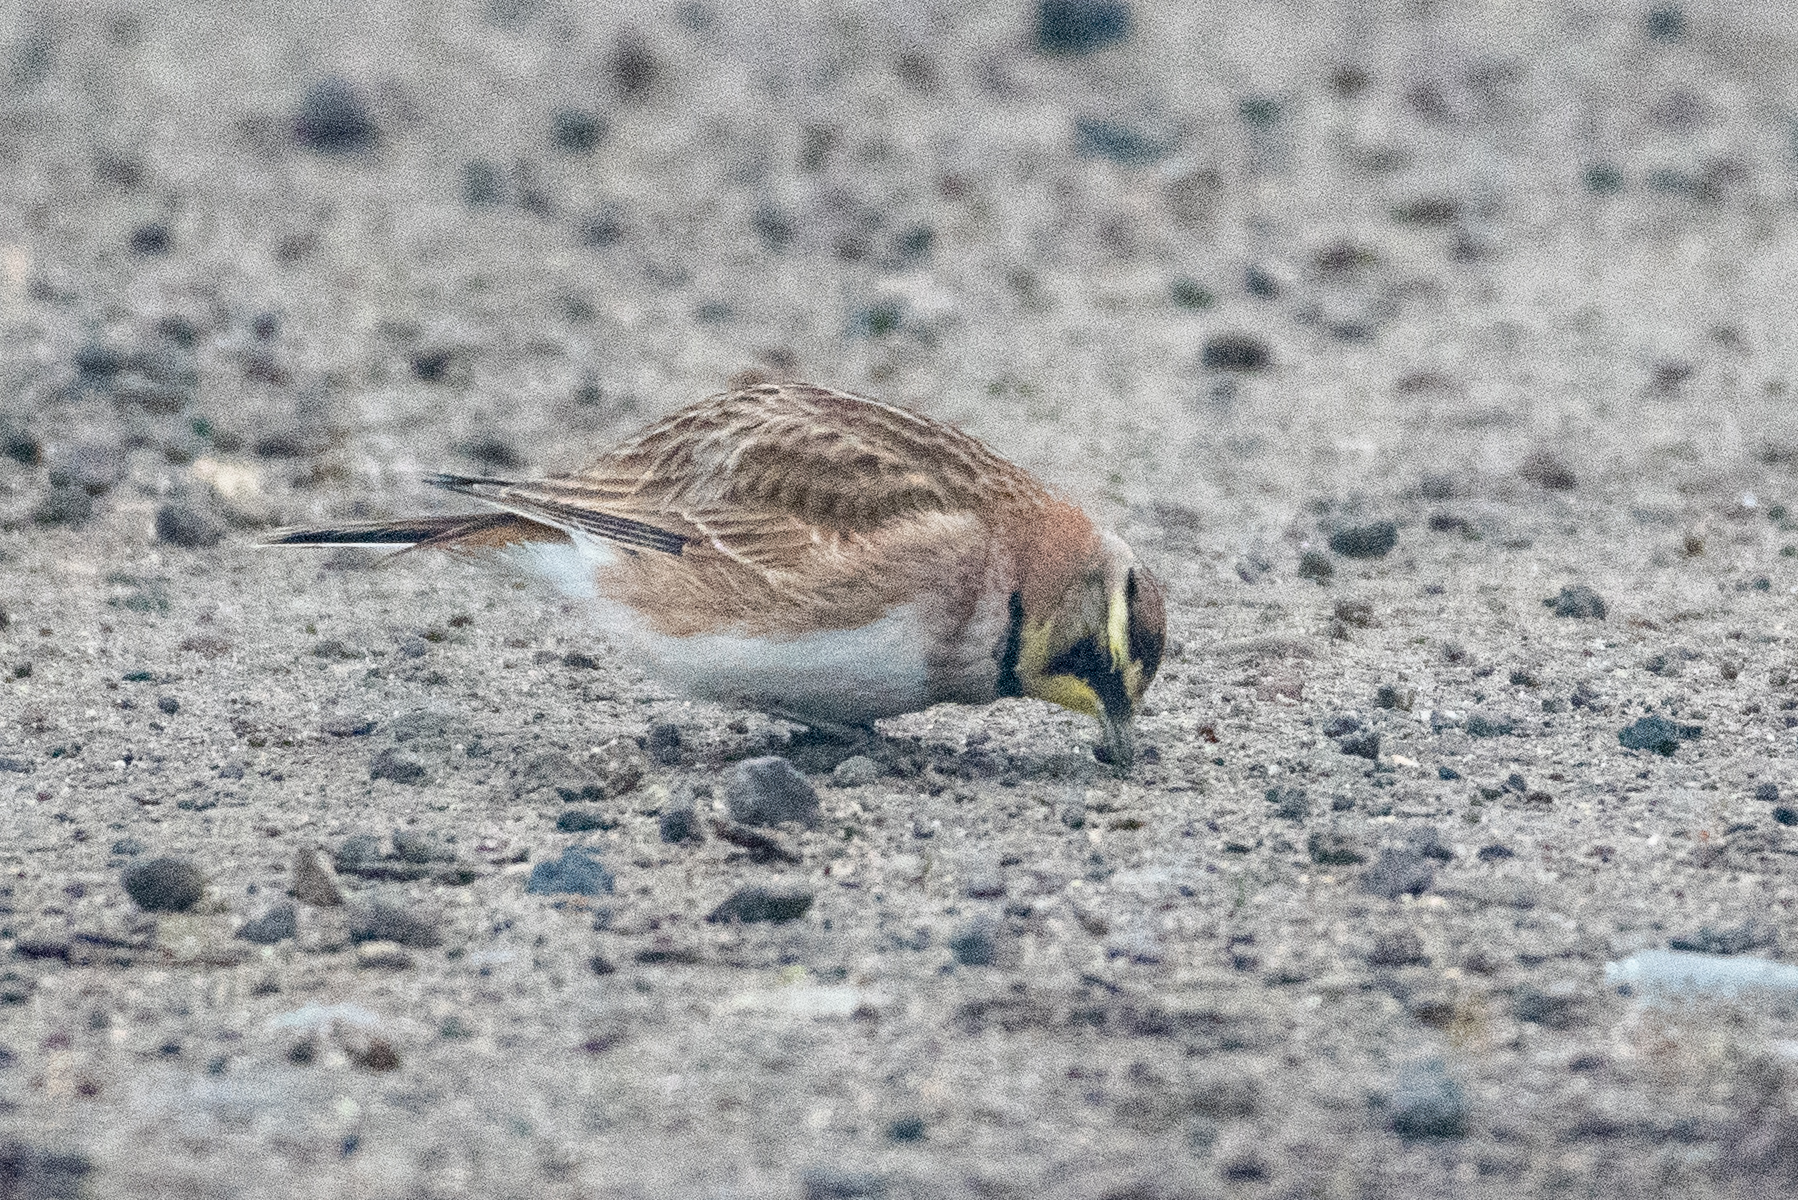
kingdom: Animalia
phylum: Chordata
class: Aves
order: Passeriformes
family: Alaudidae
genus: Eremophila
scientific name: Eremophila alpestris
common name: Horned lark
